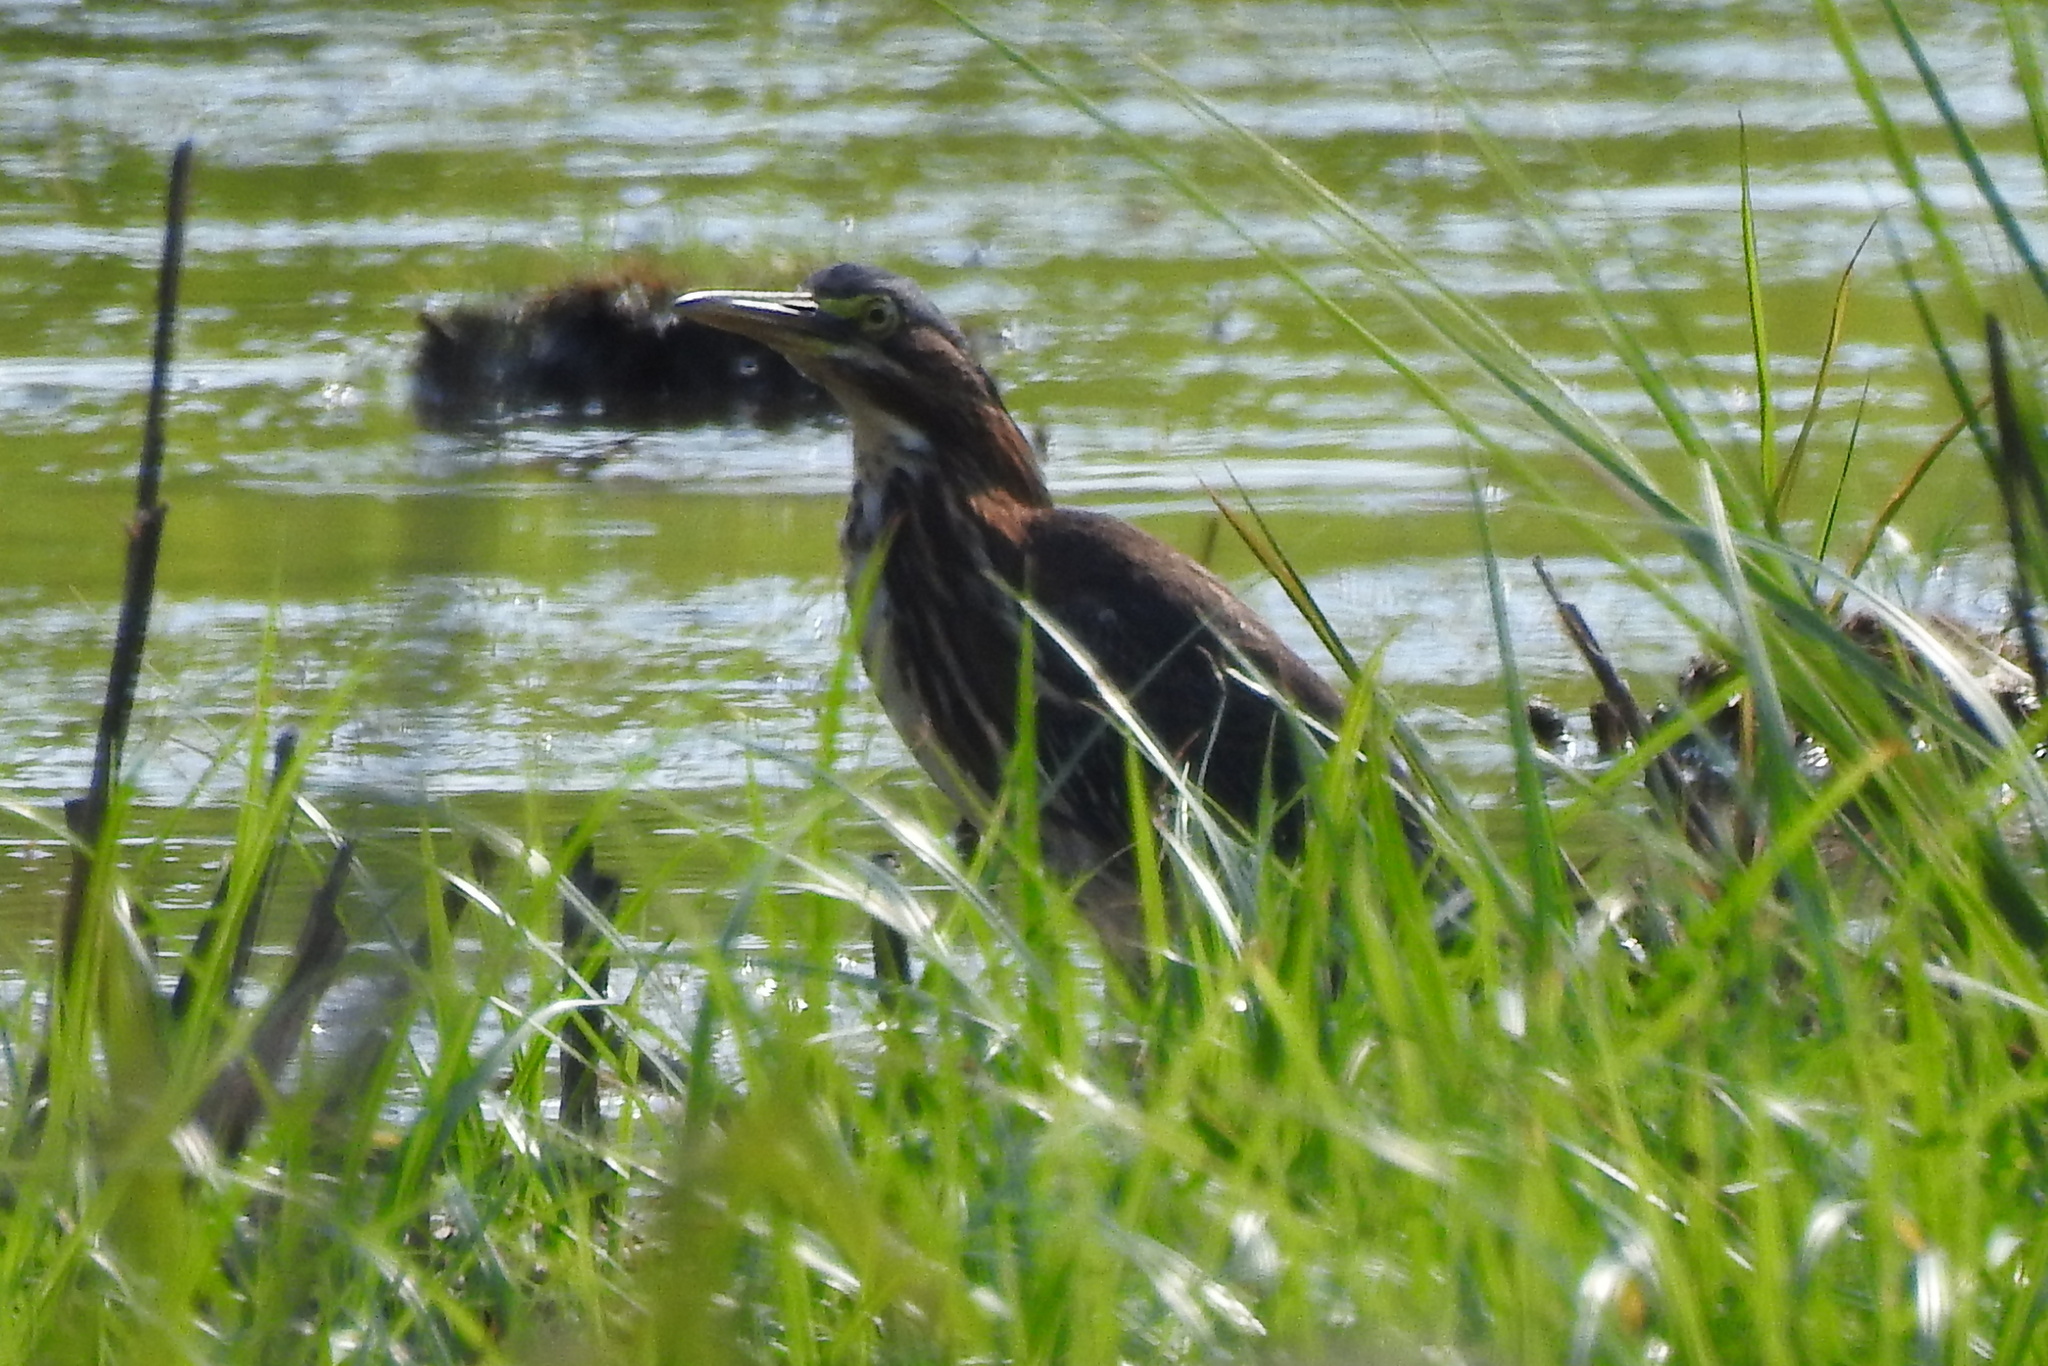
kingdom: Animalia
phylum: Chordata
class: Aves
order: Pelecaniformes
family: Ardeidae
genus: Butorides
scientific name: Butorides virescens
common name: Green heron
